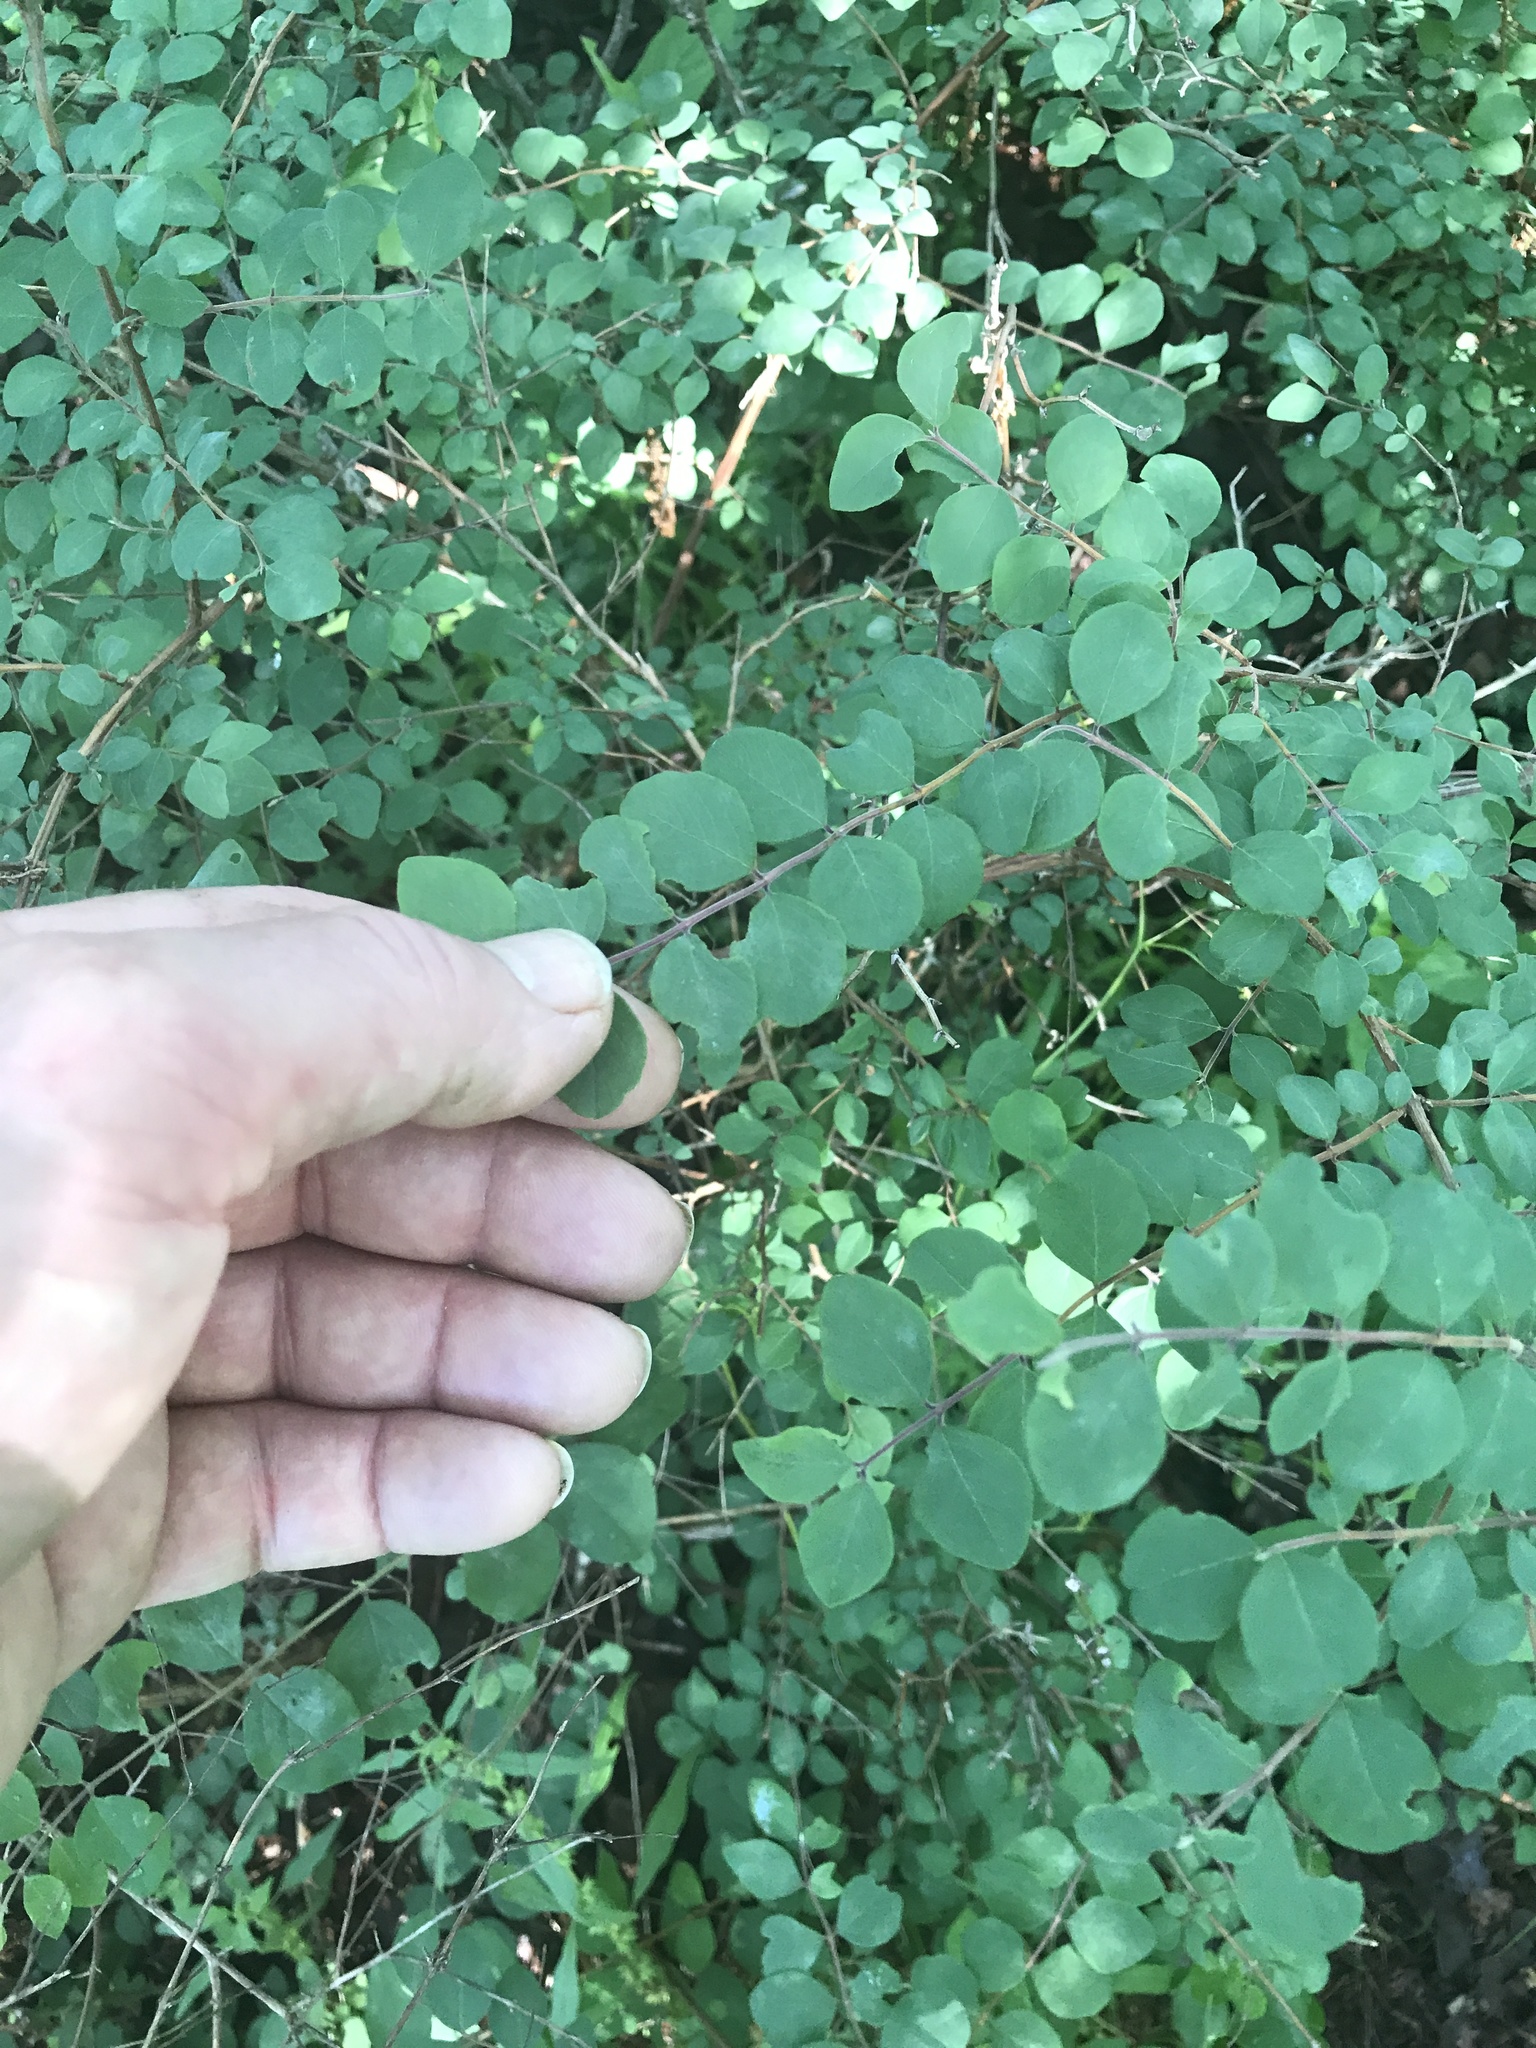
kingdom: Plantae
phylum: Tracheophyta
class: Magnoliopsida
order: Dipsacales
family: Caprifoliaceae
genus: Symphoricarpos
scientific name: Symphoricarpos orbiculatus
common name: Coralberry
